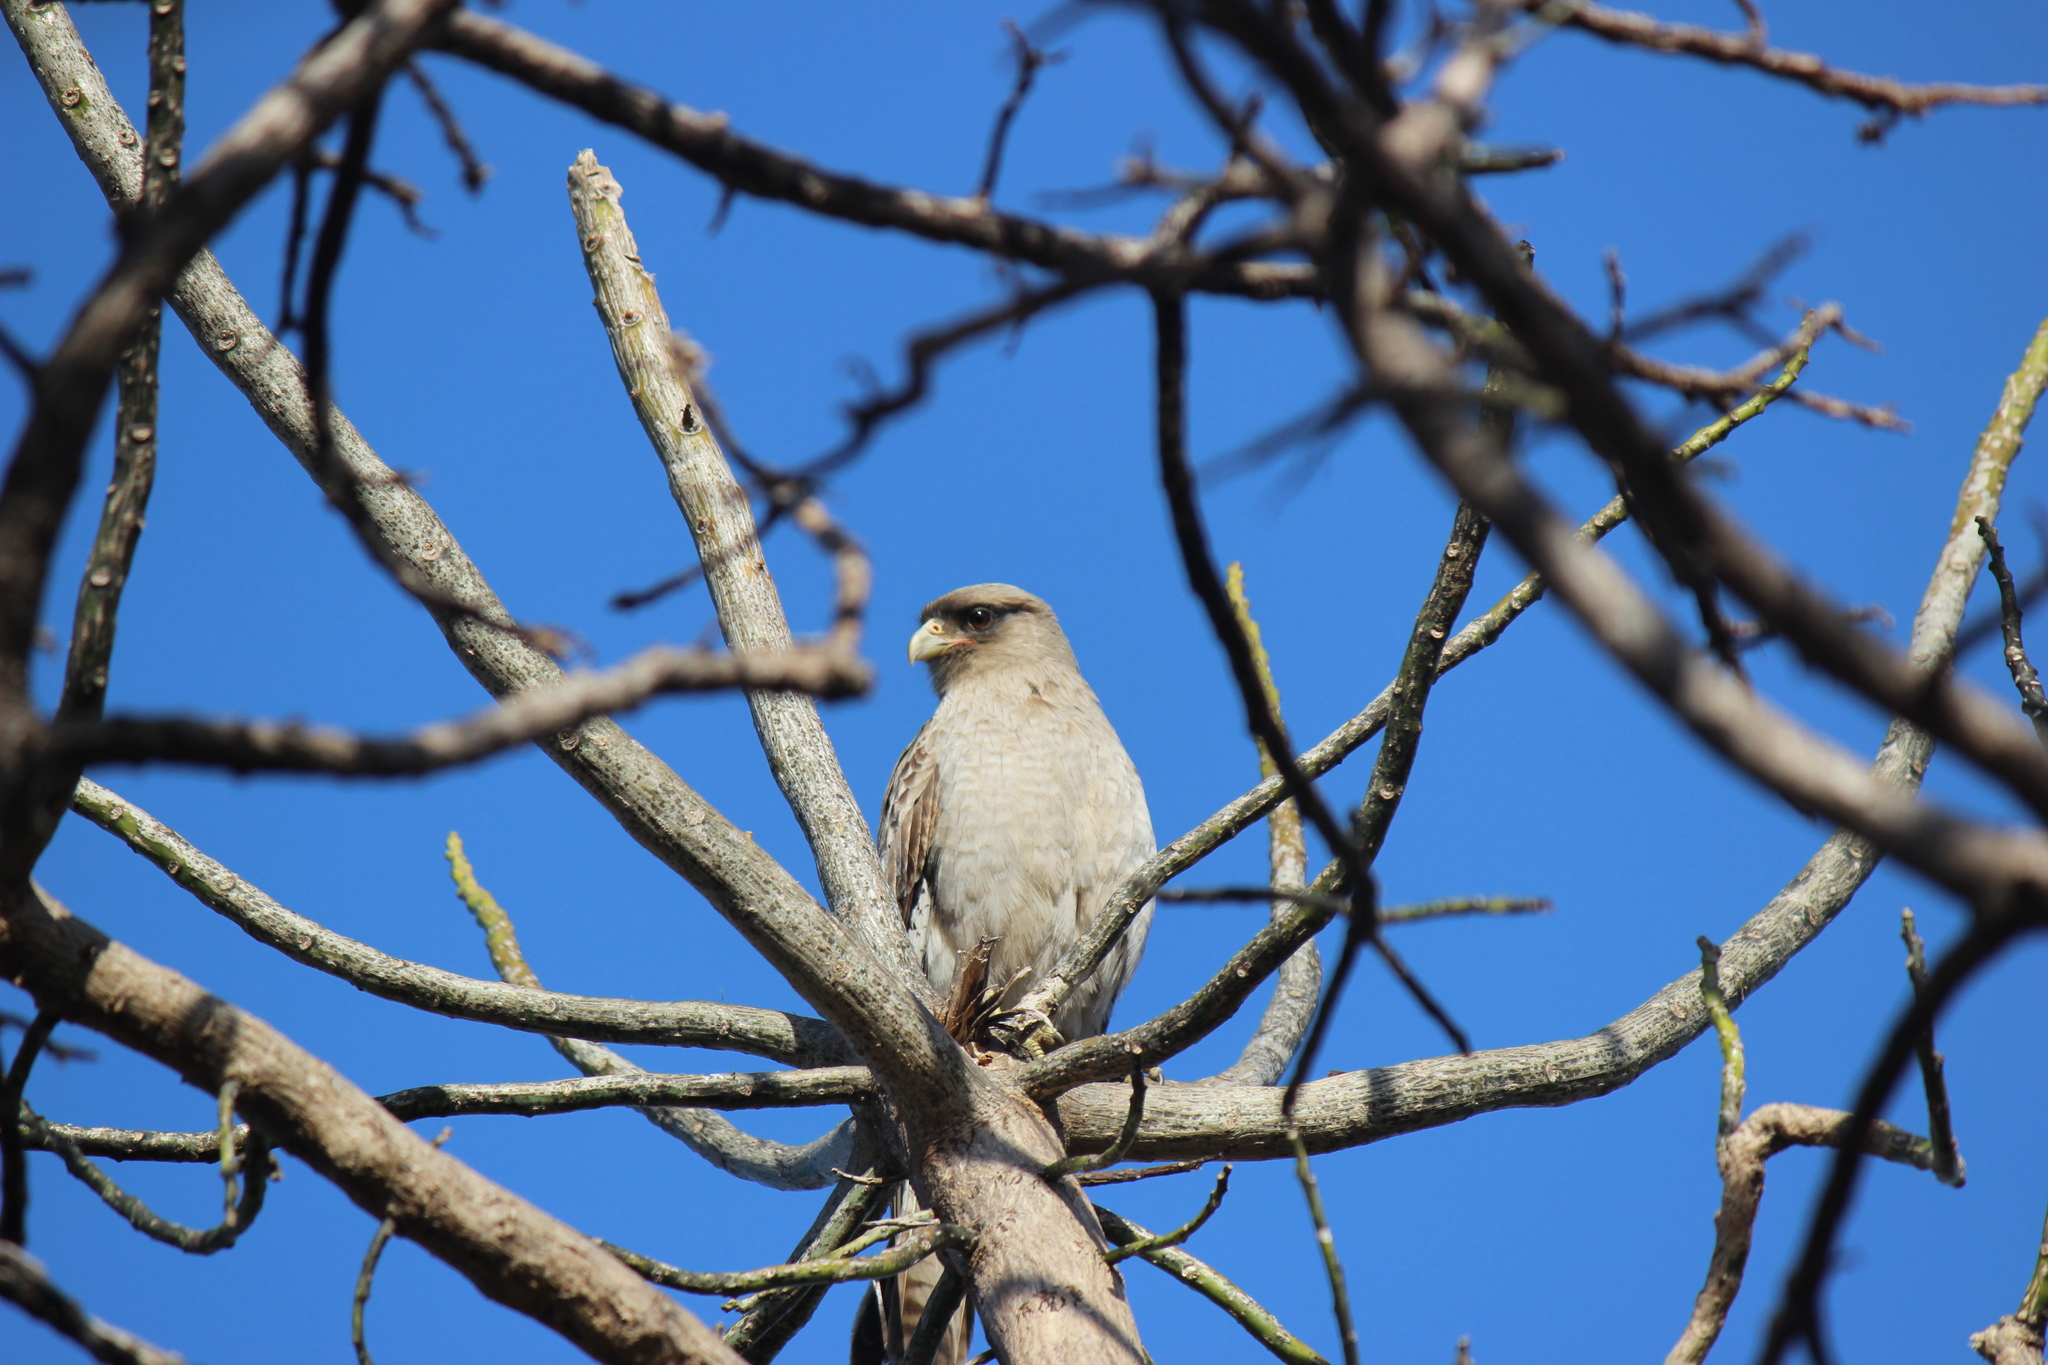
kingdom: Animalia
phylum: Chordata
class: Aves
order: Falconiformes
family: Falconidae
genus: Daptrius
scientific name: Daptrius
